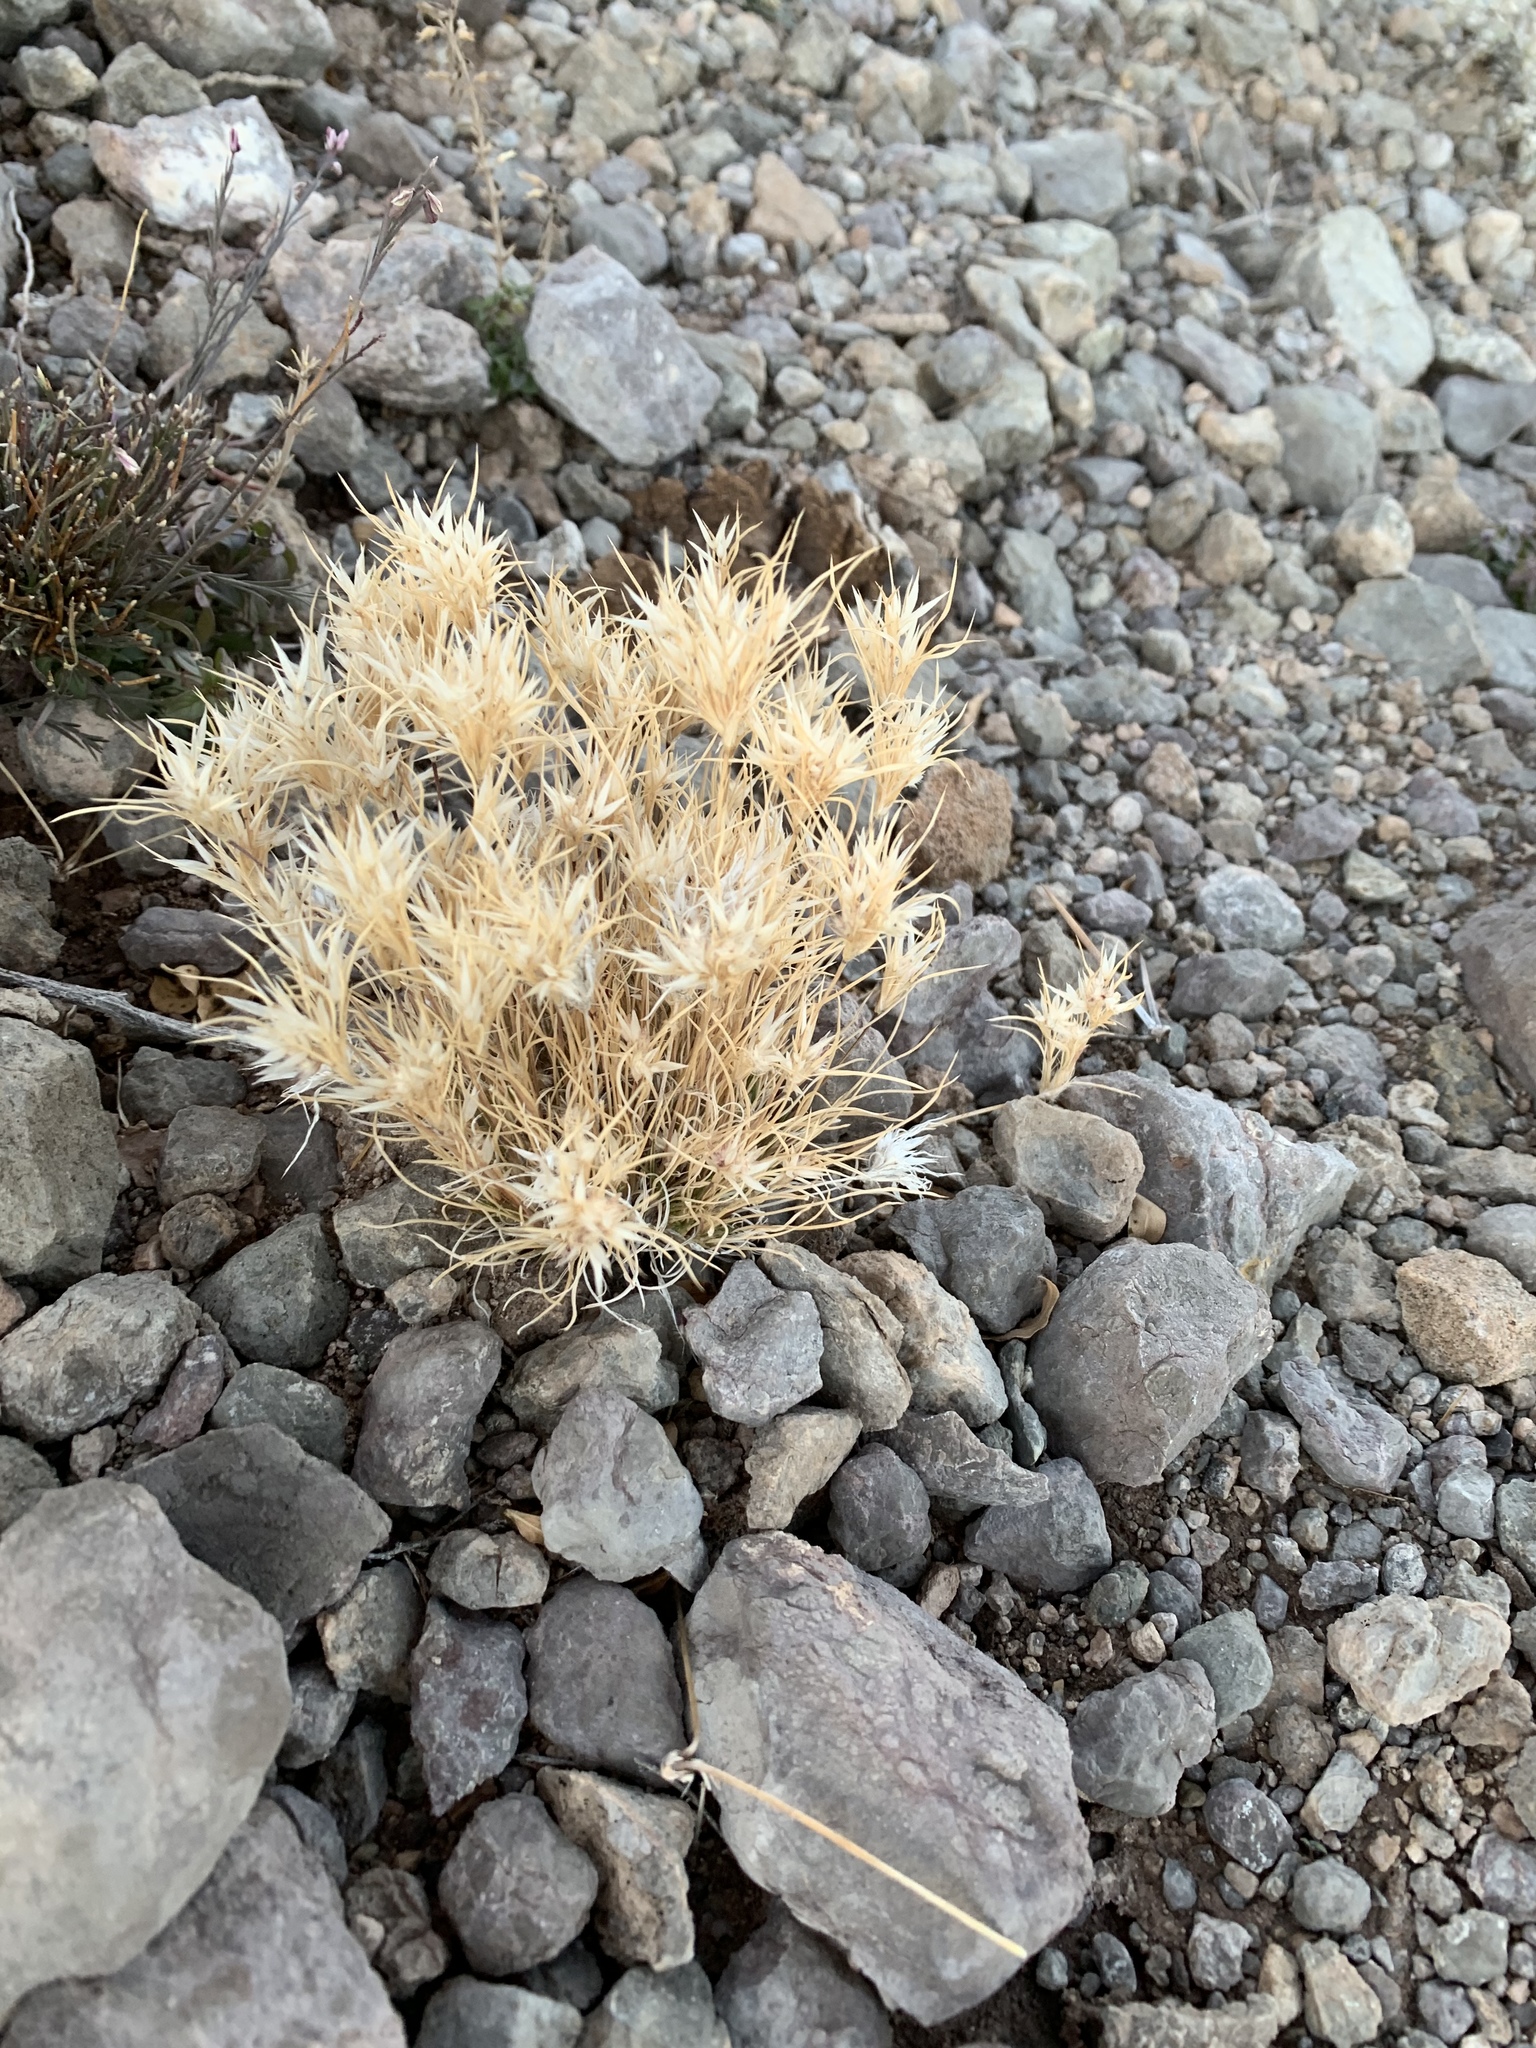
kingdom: Plantae
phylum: Tracheophyta
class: Liliopsida
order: Poales
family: Poaceae
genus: Dasyochloa
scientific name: Dasyochloa pulchella
